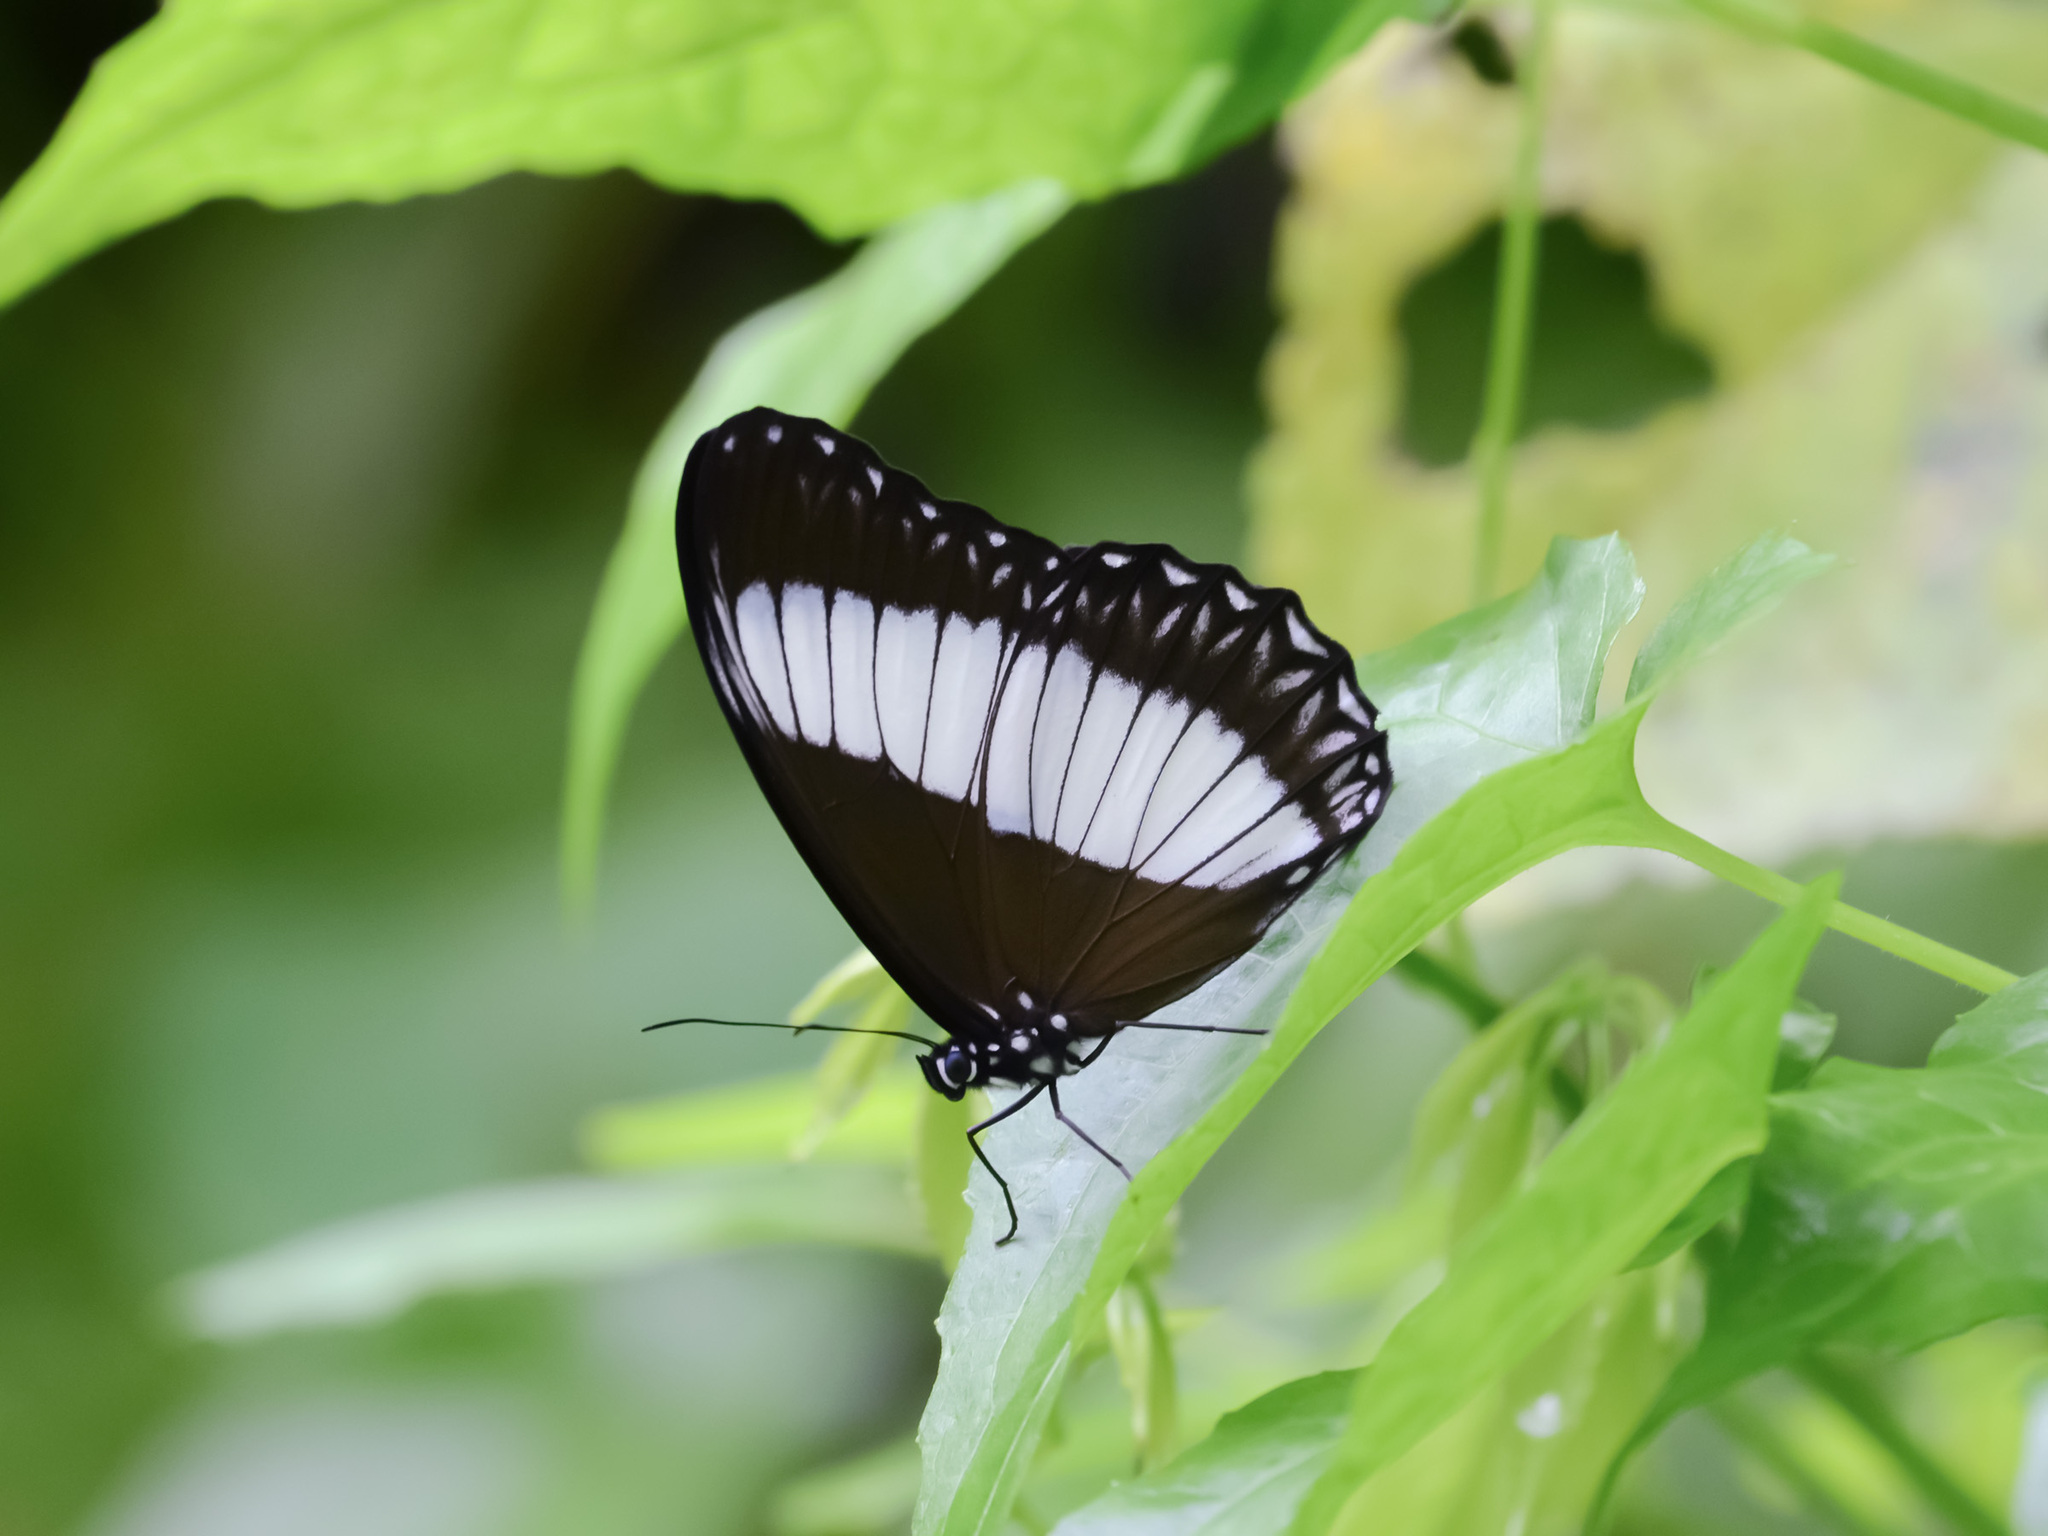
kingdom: Animalia
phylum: Arthropoda
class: Insecta
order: Lepidoptera
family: Nymphalidae
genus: Zethera
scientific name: Zethera pimplea
